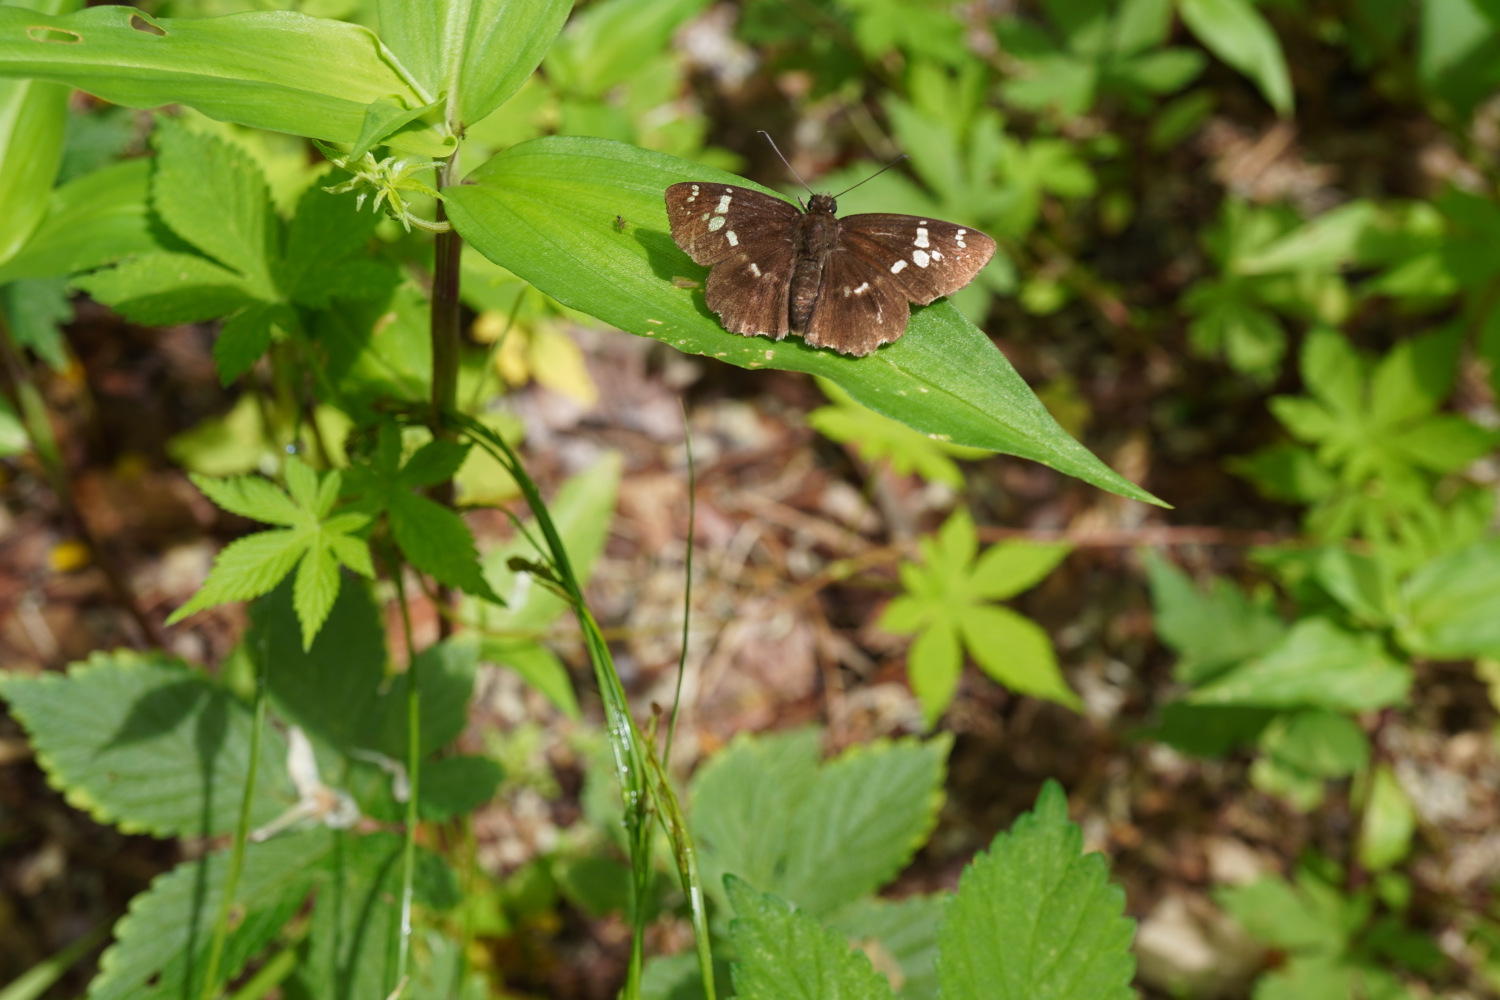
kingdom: Animalia
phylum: Arthropoda
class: Insecta
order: Lepidoptera
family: Hesperiidae
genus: Daimio
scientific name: Daimio tethys
